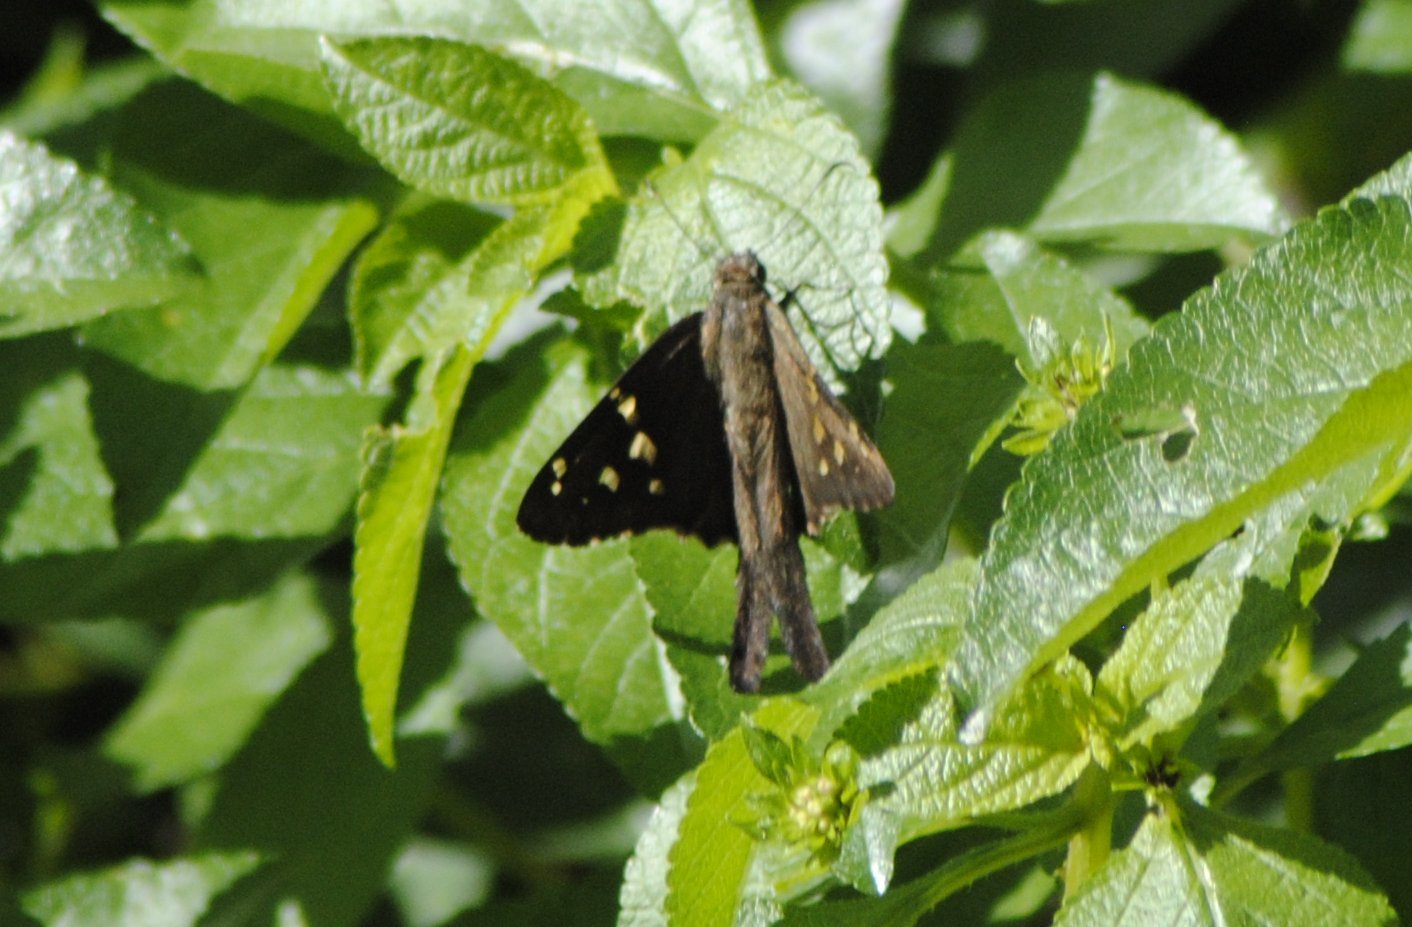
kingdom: Animalia
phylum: Arthropoda
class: Insecta
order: Lepidoptera
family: Hesperiidae
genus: Thorybes
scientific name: Thorybes
